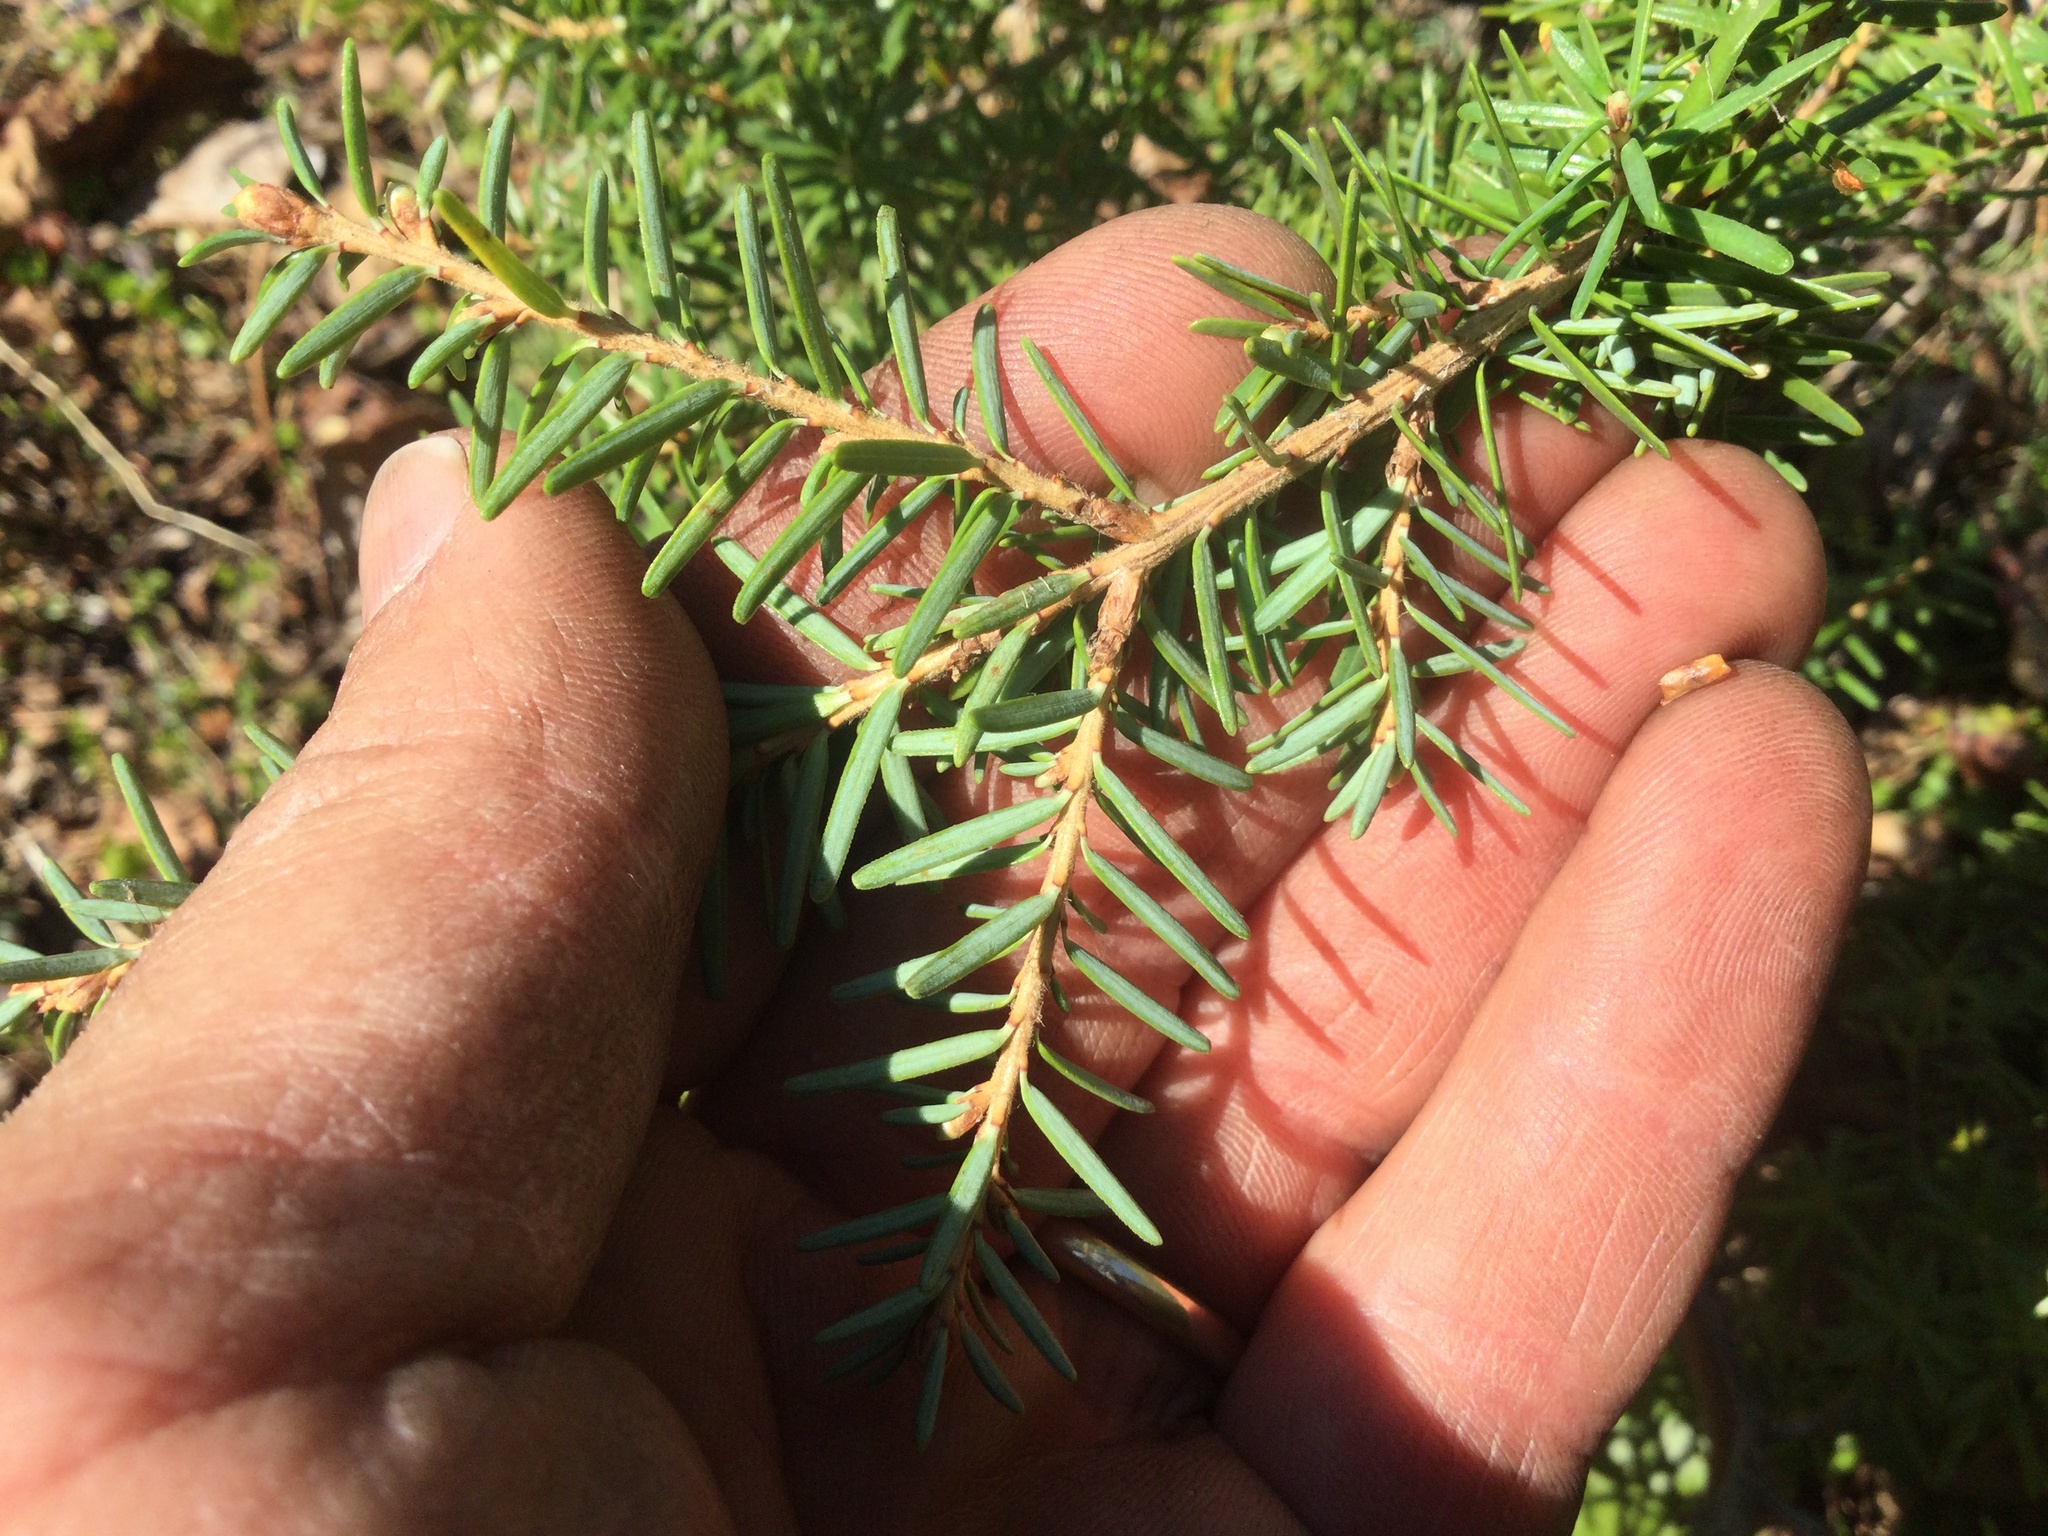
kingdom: Plantae
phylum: Tracheophyta
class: Pinopsida
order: Pinales
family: Pinaceae
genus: Tsuga
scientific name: Tsuga mertensiana
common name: Mountain hemlock
